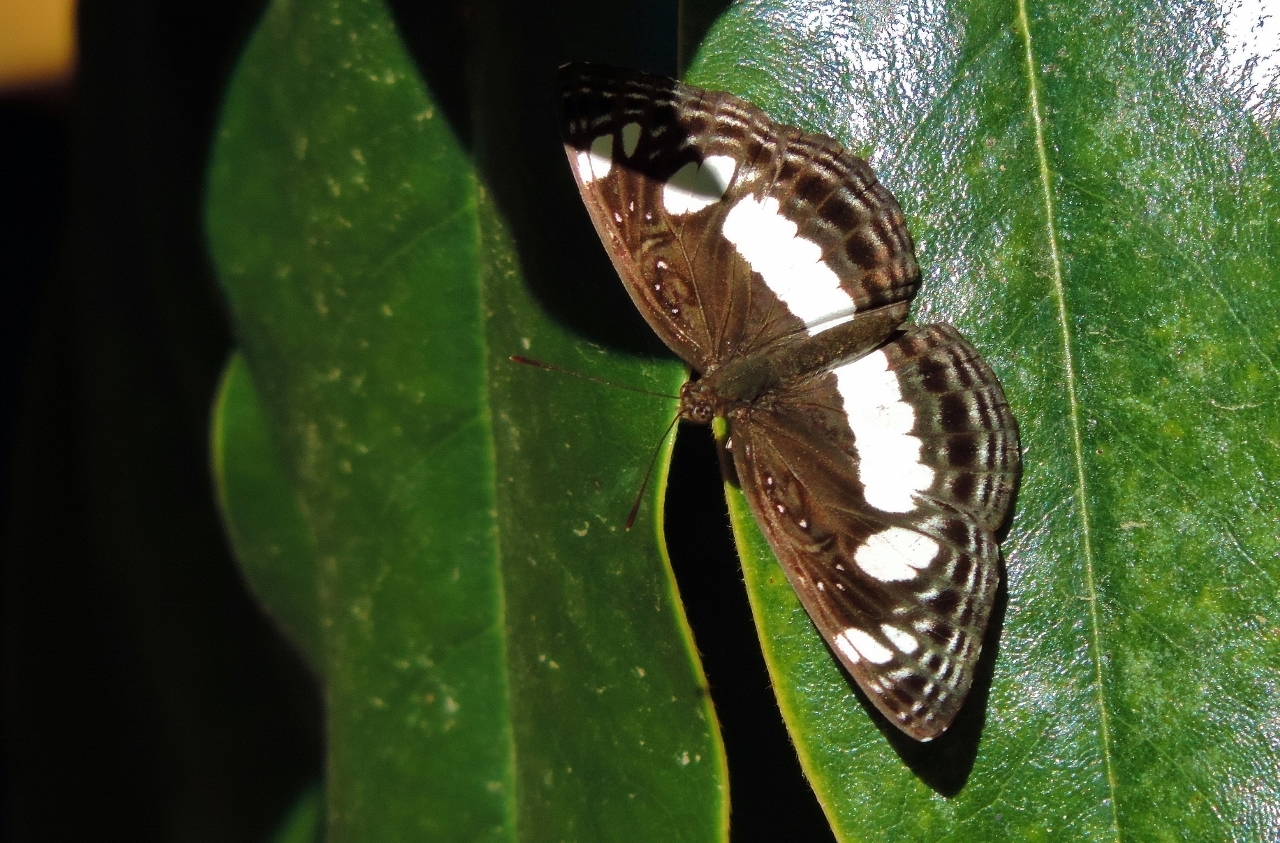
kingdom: Animalia
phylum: Arthropoda
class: Insecta
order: Lepidoptera
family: Nymphalidae
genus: Neptis
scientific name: Neptis saclava
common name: Small spotted sailor
